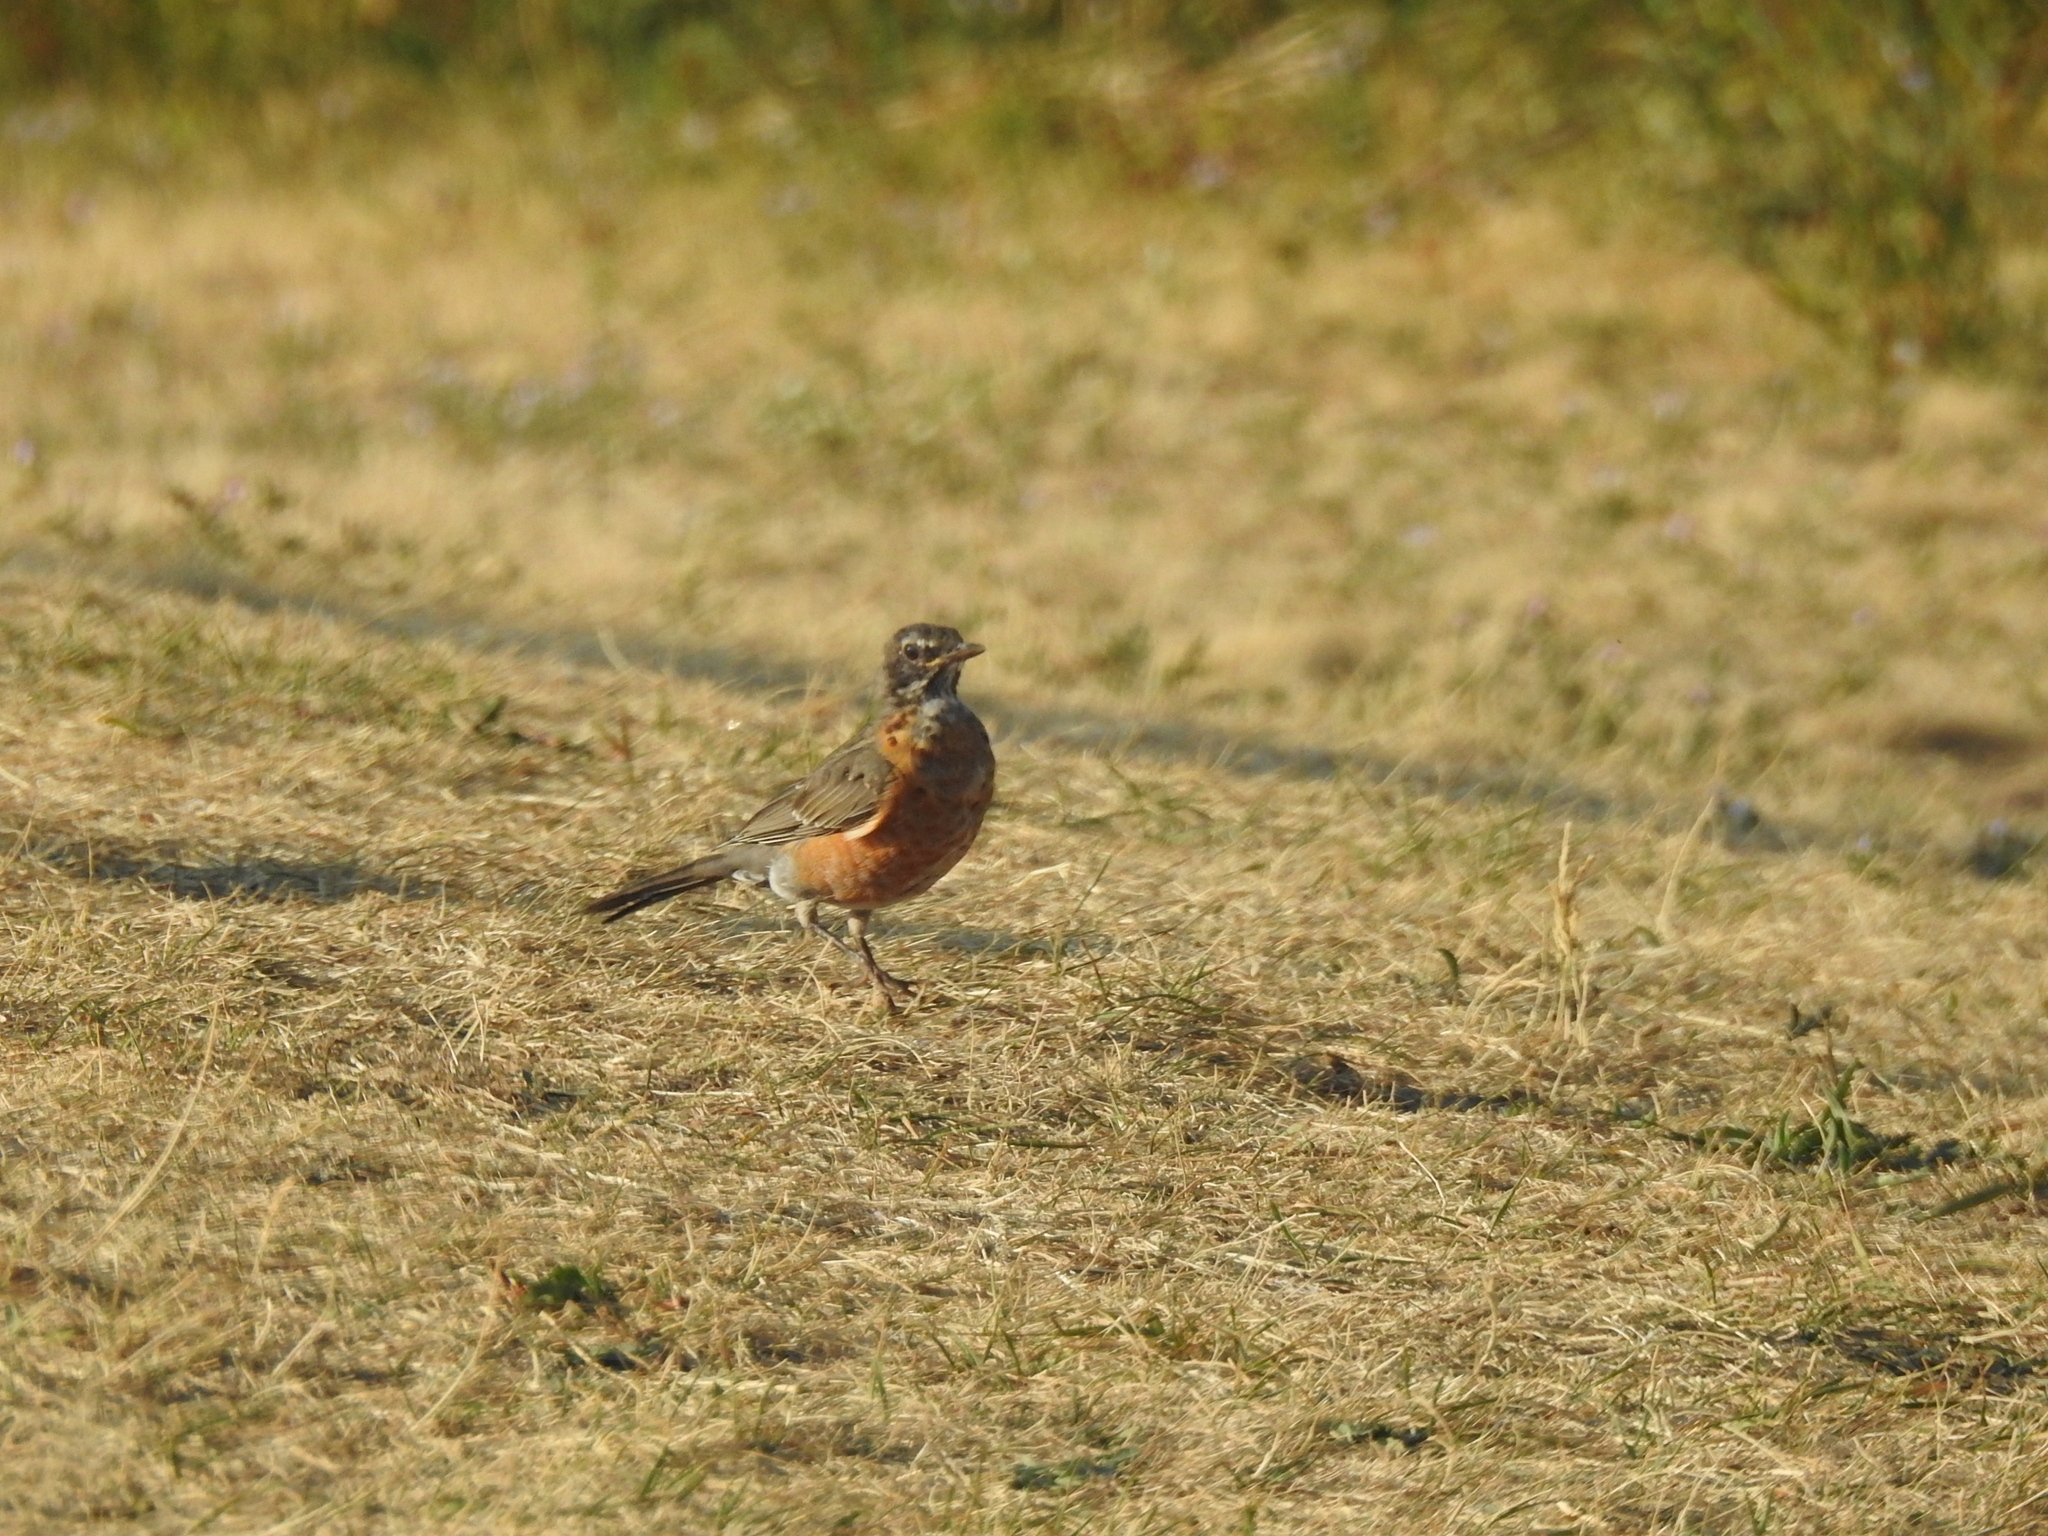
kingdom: Animalia
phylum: Chordata
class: Aves
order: Passeriformes
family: Turdidae
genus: Turdus
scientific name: Turdus migratorius
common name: American robin
